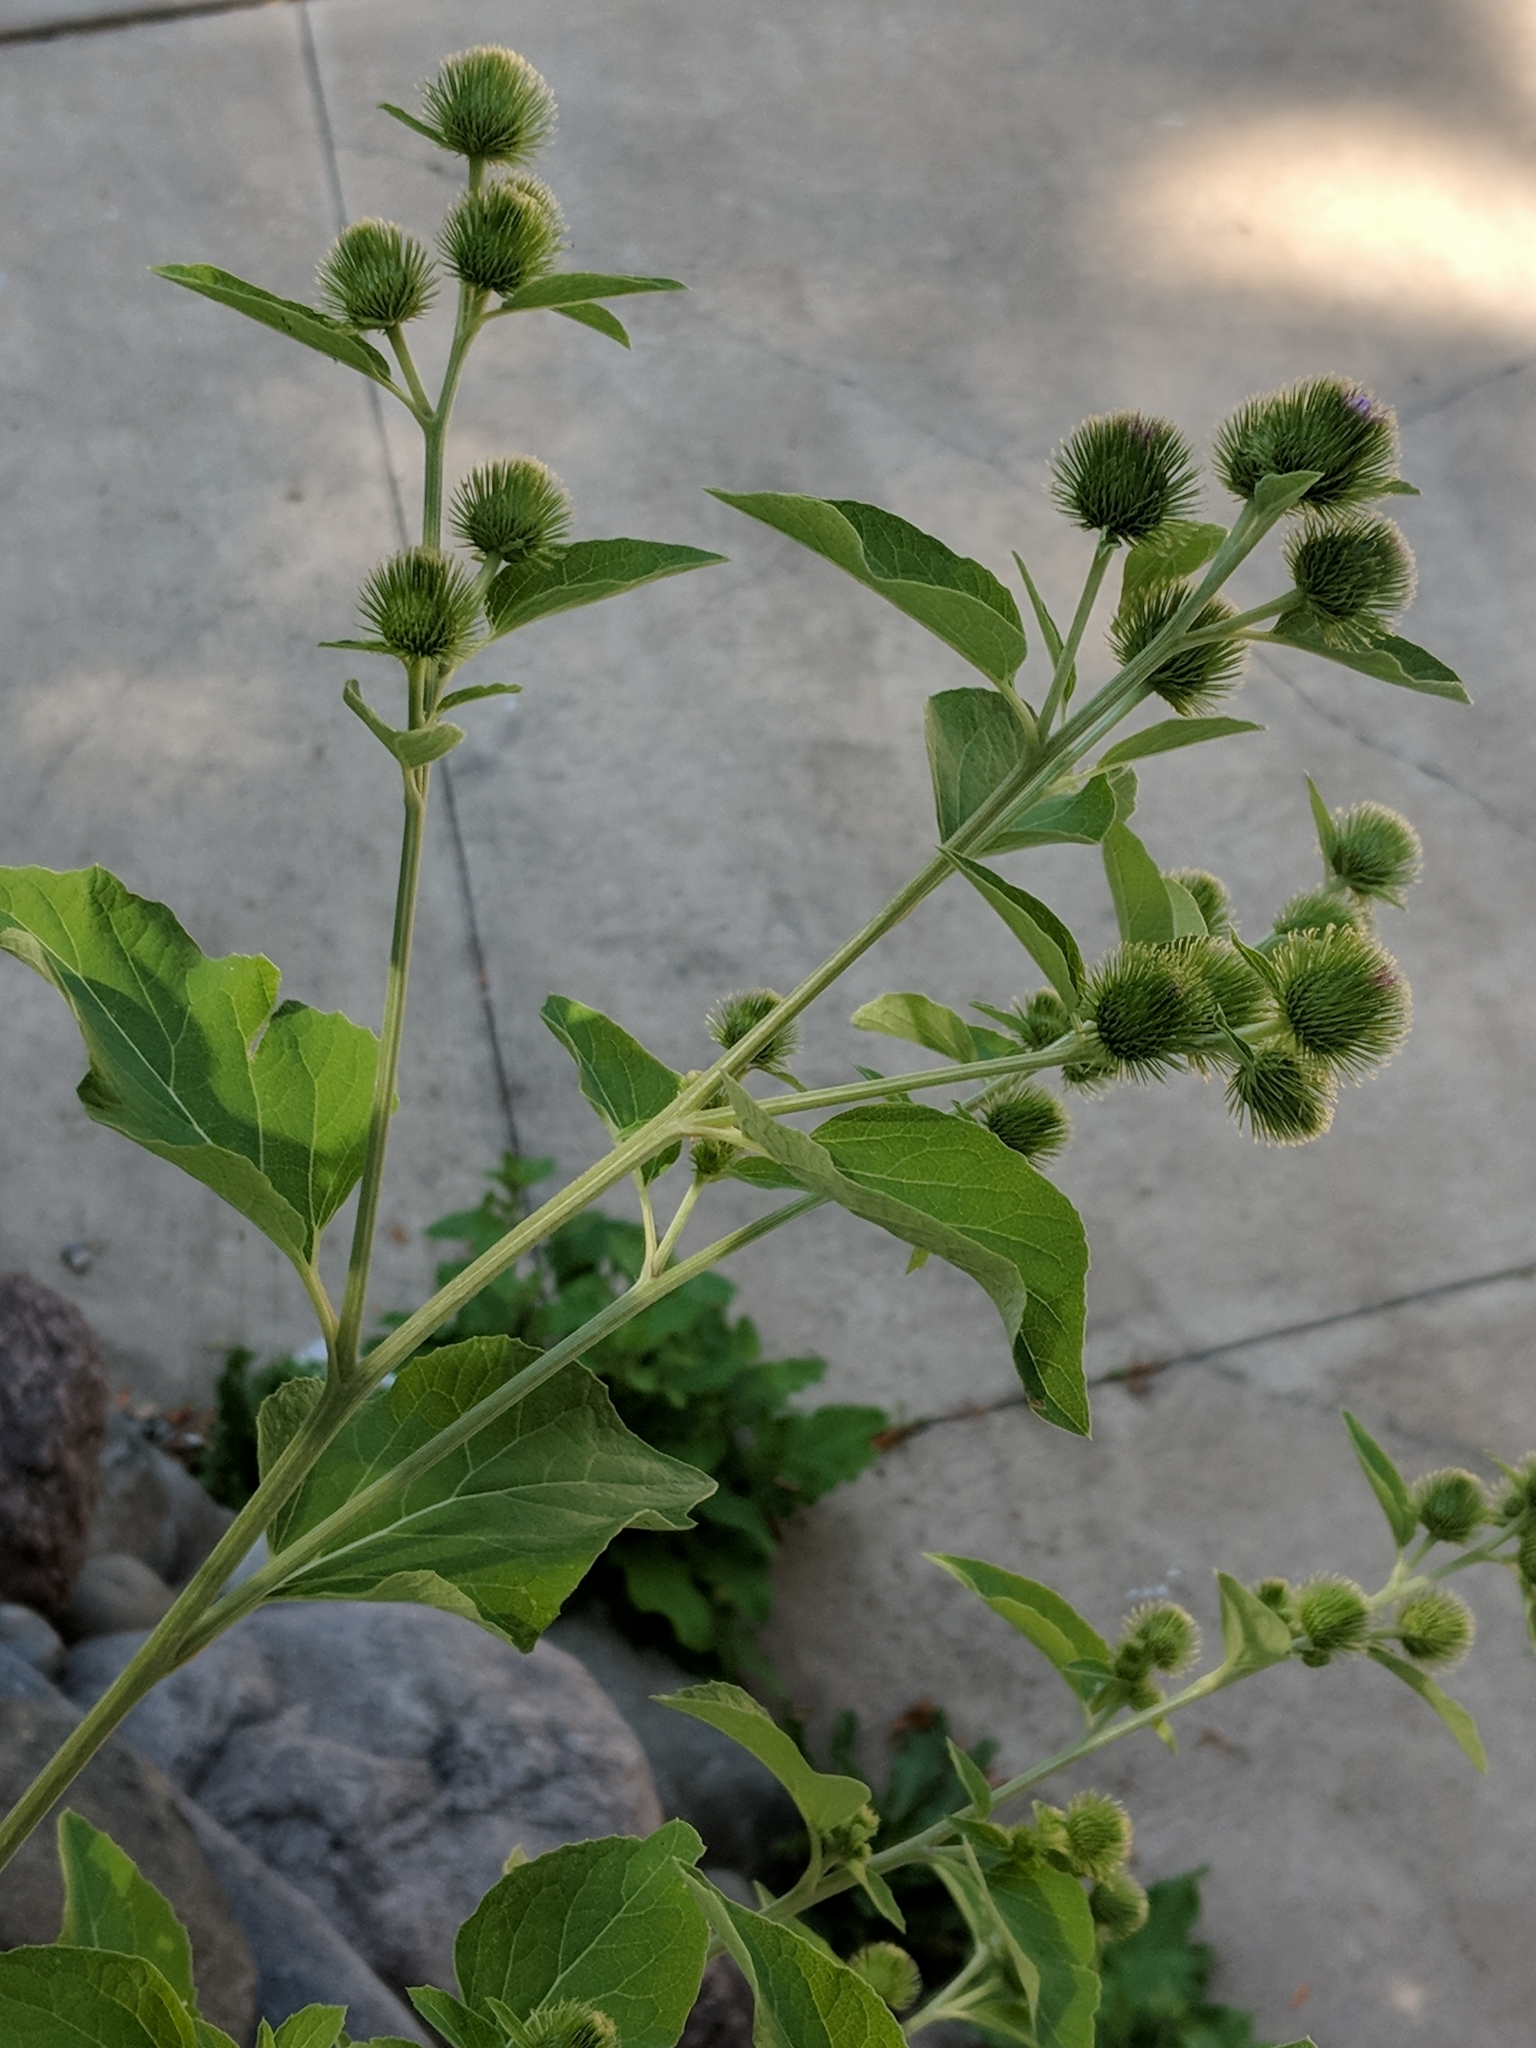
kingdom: Plantae
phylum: Tracheophyta
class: Magnoliopsida
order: Asterales
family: Asteraceae
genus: Arctium
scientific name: Arctium minus
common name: Lesser burdock
